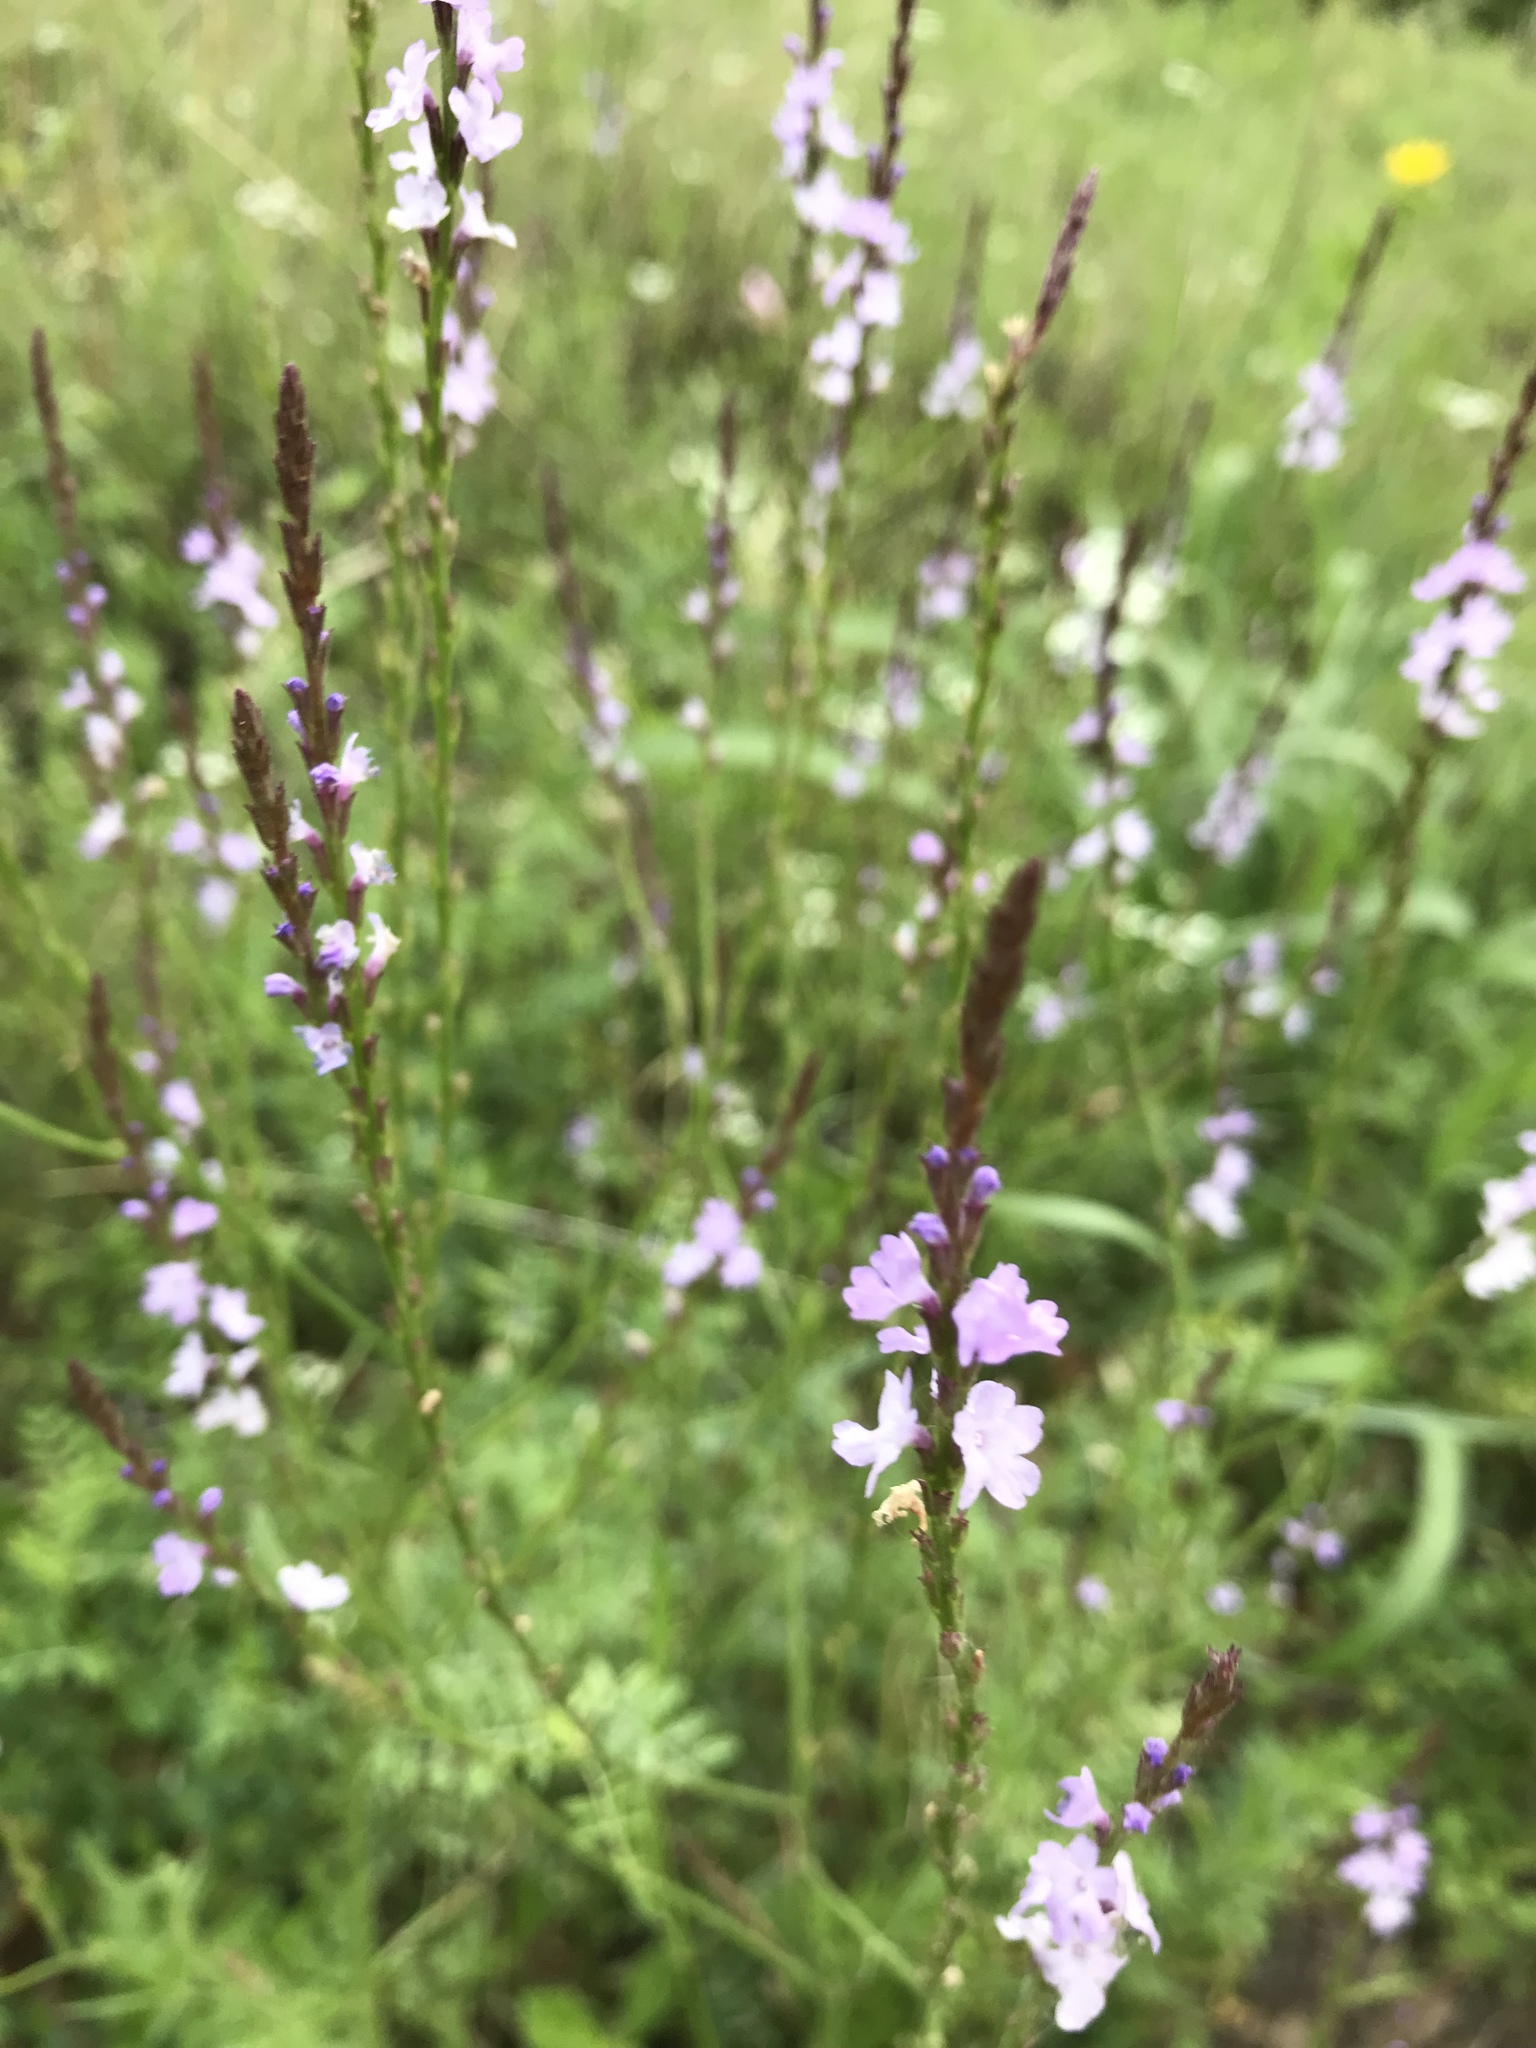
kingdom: Plantae
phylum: Tracheophyta
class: Magnoliopsida
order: Lamiales
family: Verbenaceae
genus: Verbena
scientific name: Verbena halei
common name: Texas vervain
